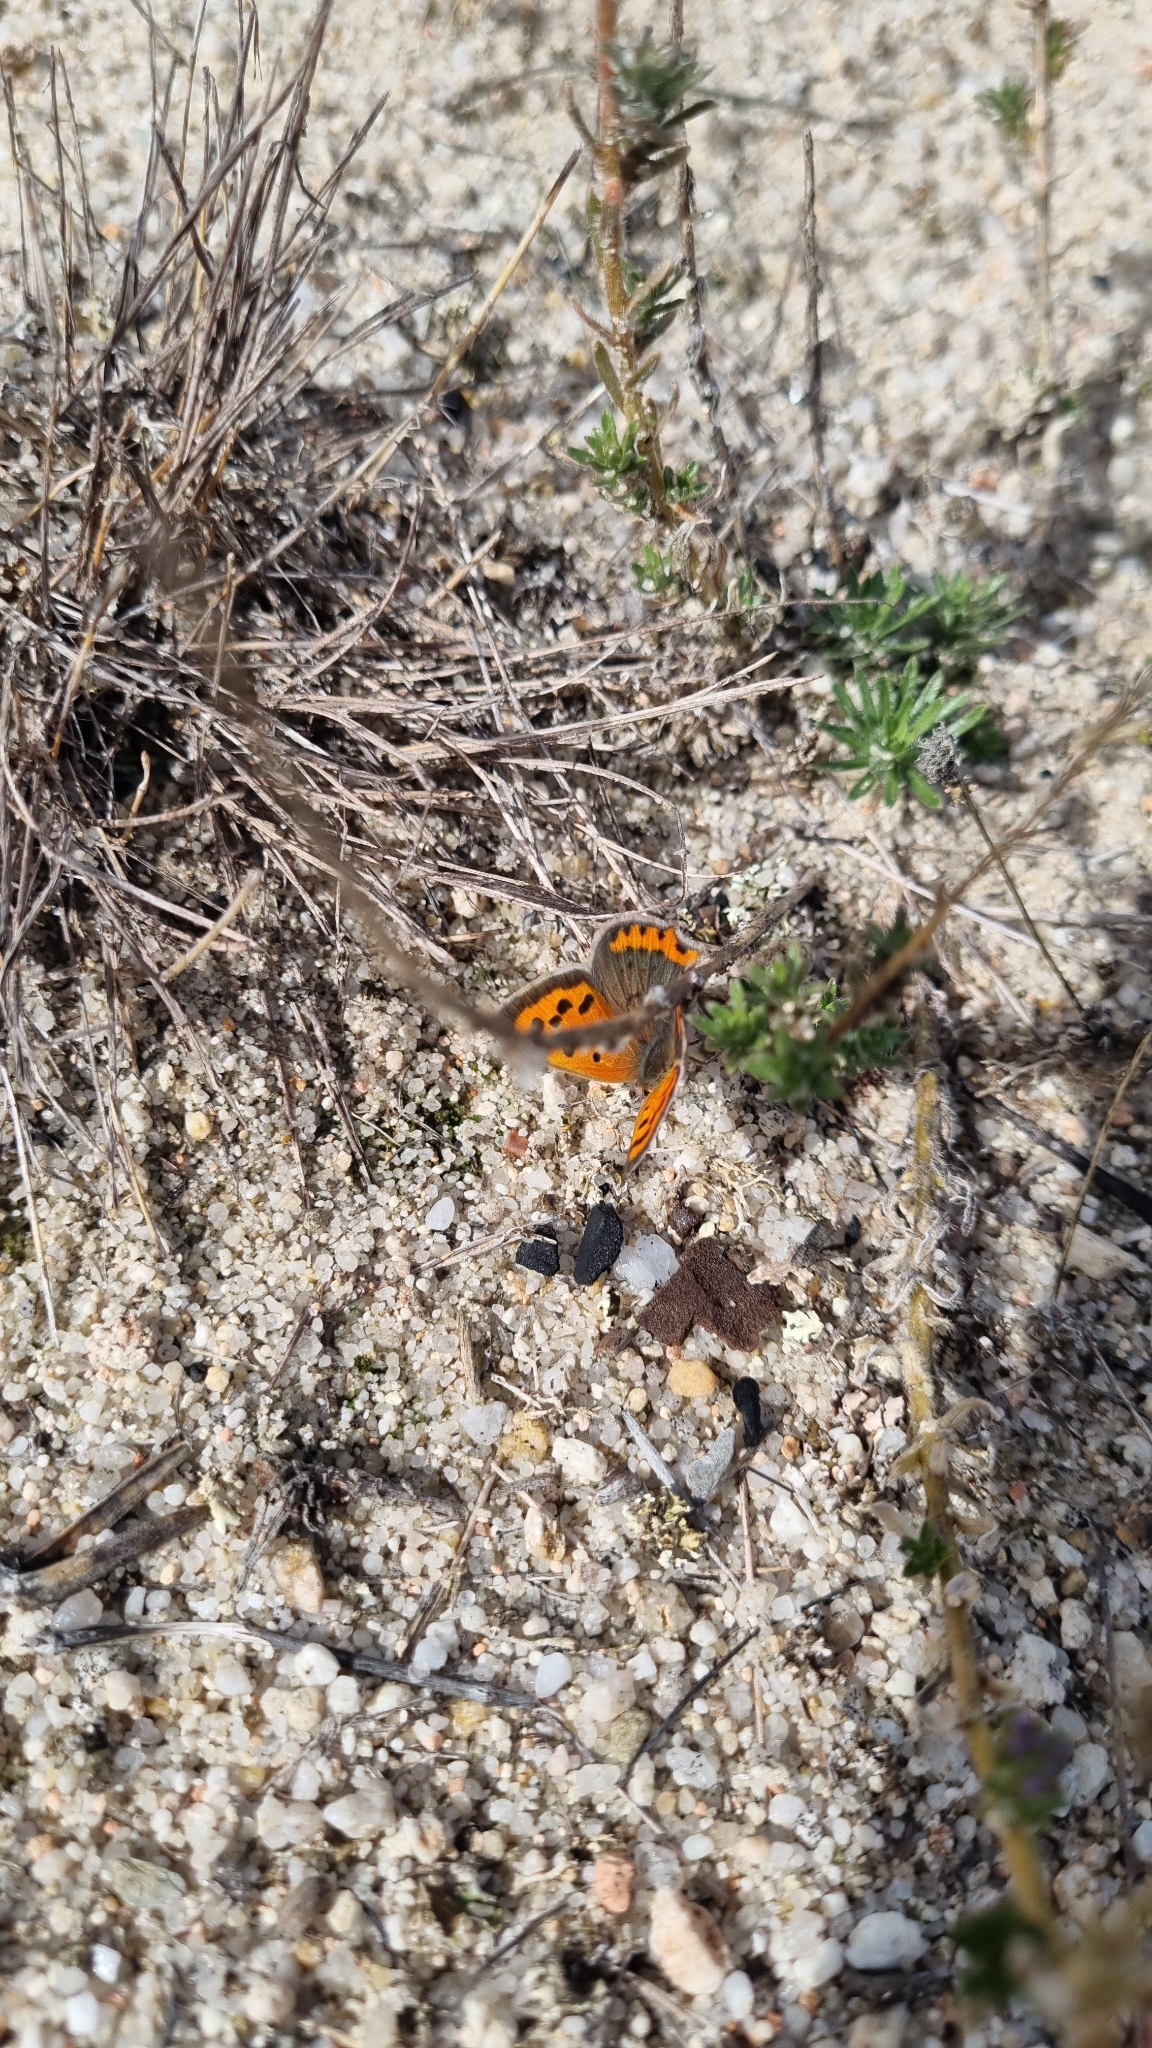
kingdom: Animalia
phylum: Arthropoda
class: Insecta
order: Lepidoptera
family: Lycaenidae
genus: Lycaena
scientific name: Lycaena phlaeas
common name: Small copper
